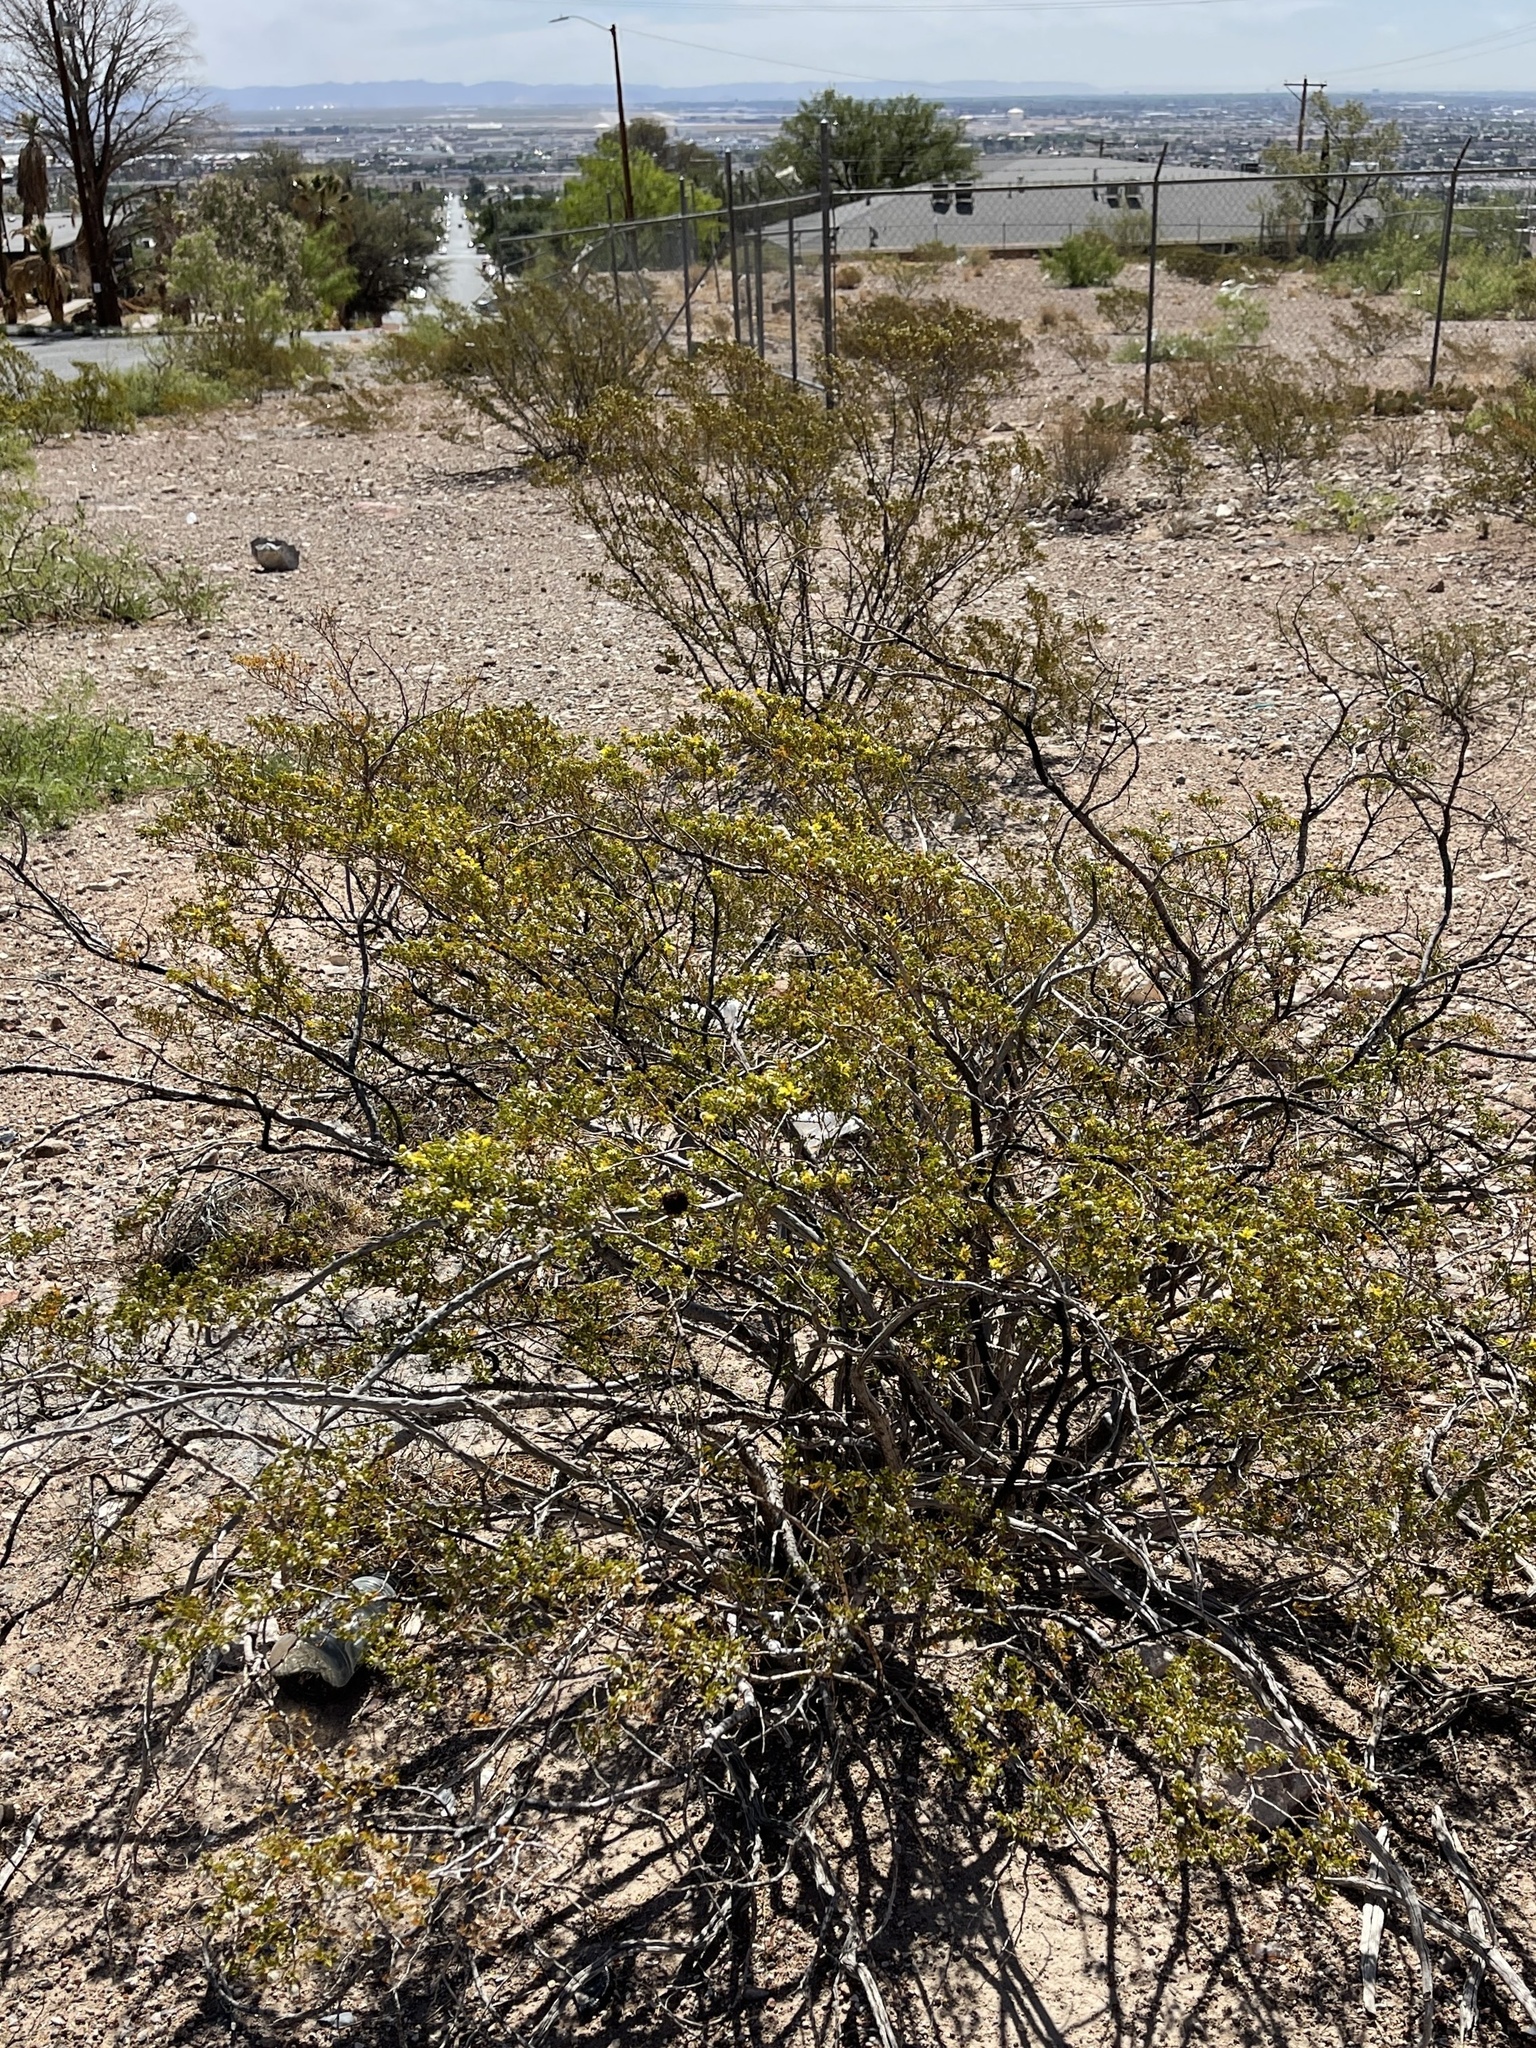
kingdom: Plantae
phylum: Tracheophyta
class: Magnoliopsida
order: Zygophyllales
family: Zygophyllaceae
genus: Larrea
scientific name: Larrea tridentata
